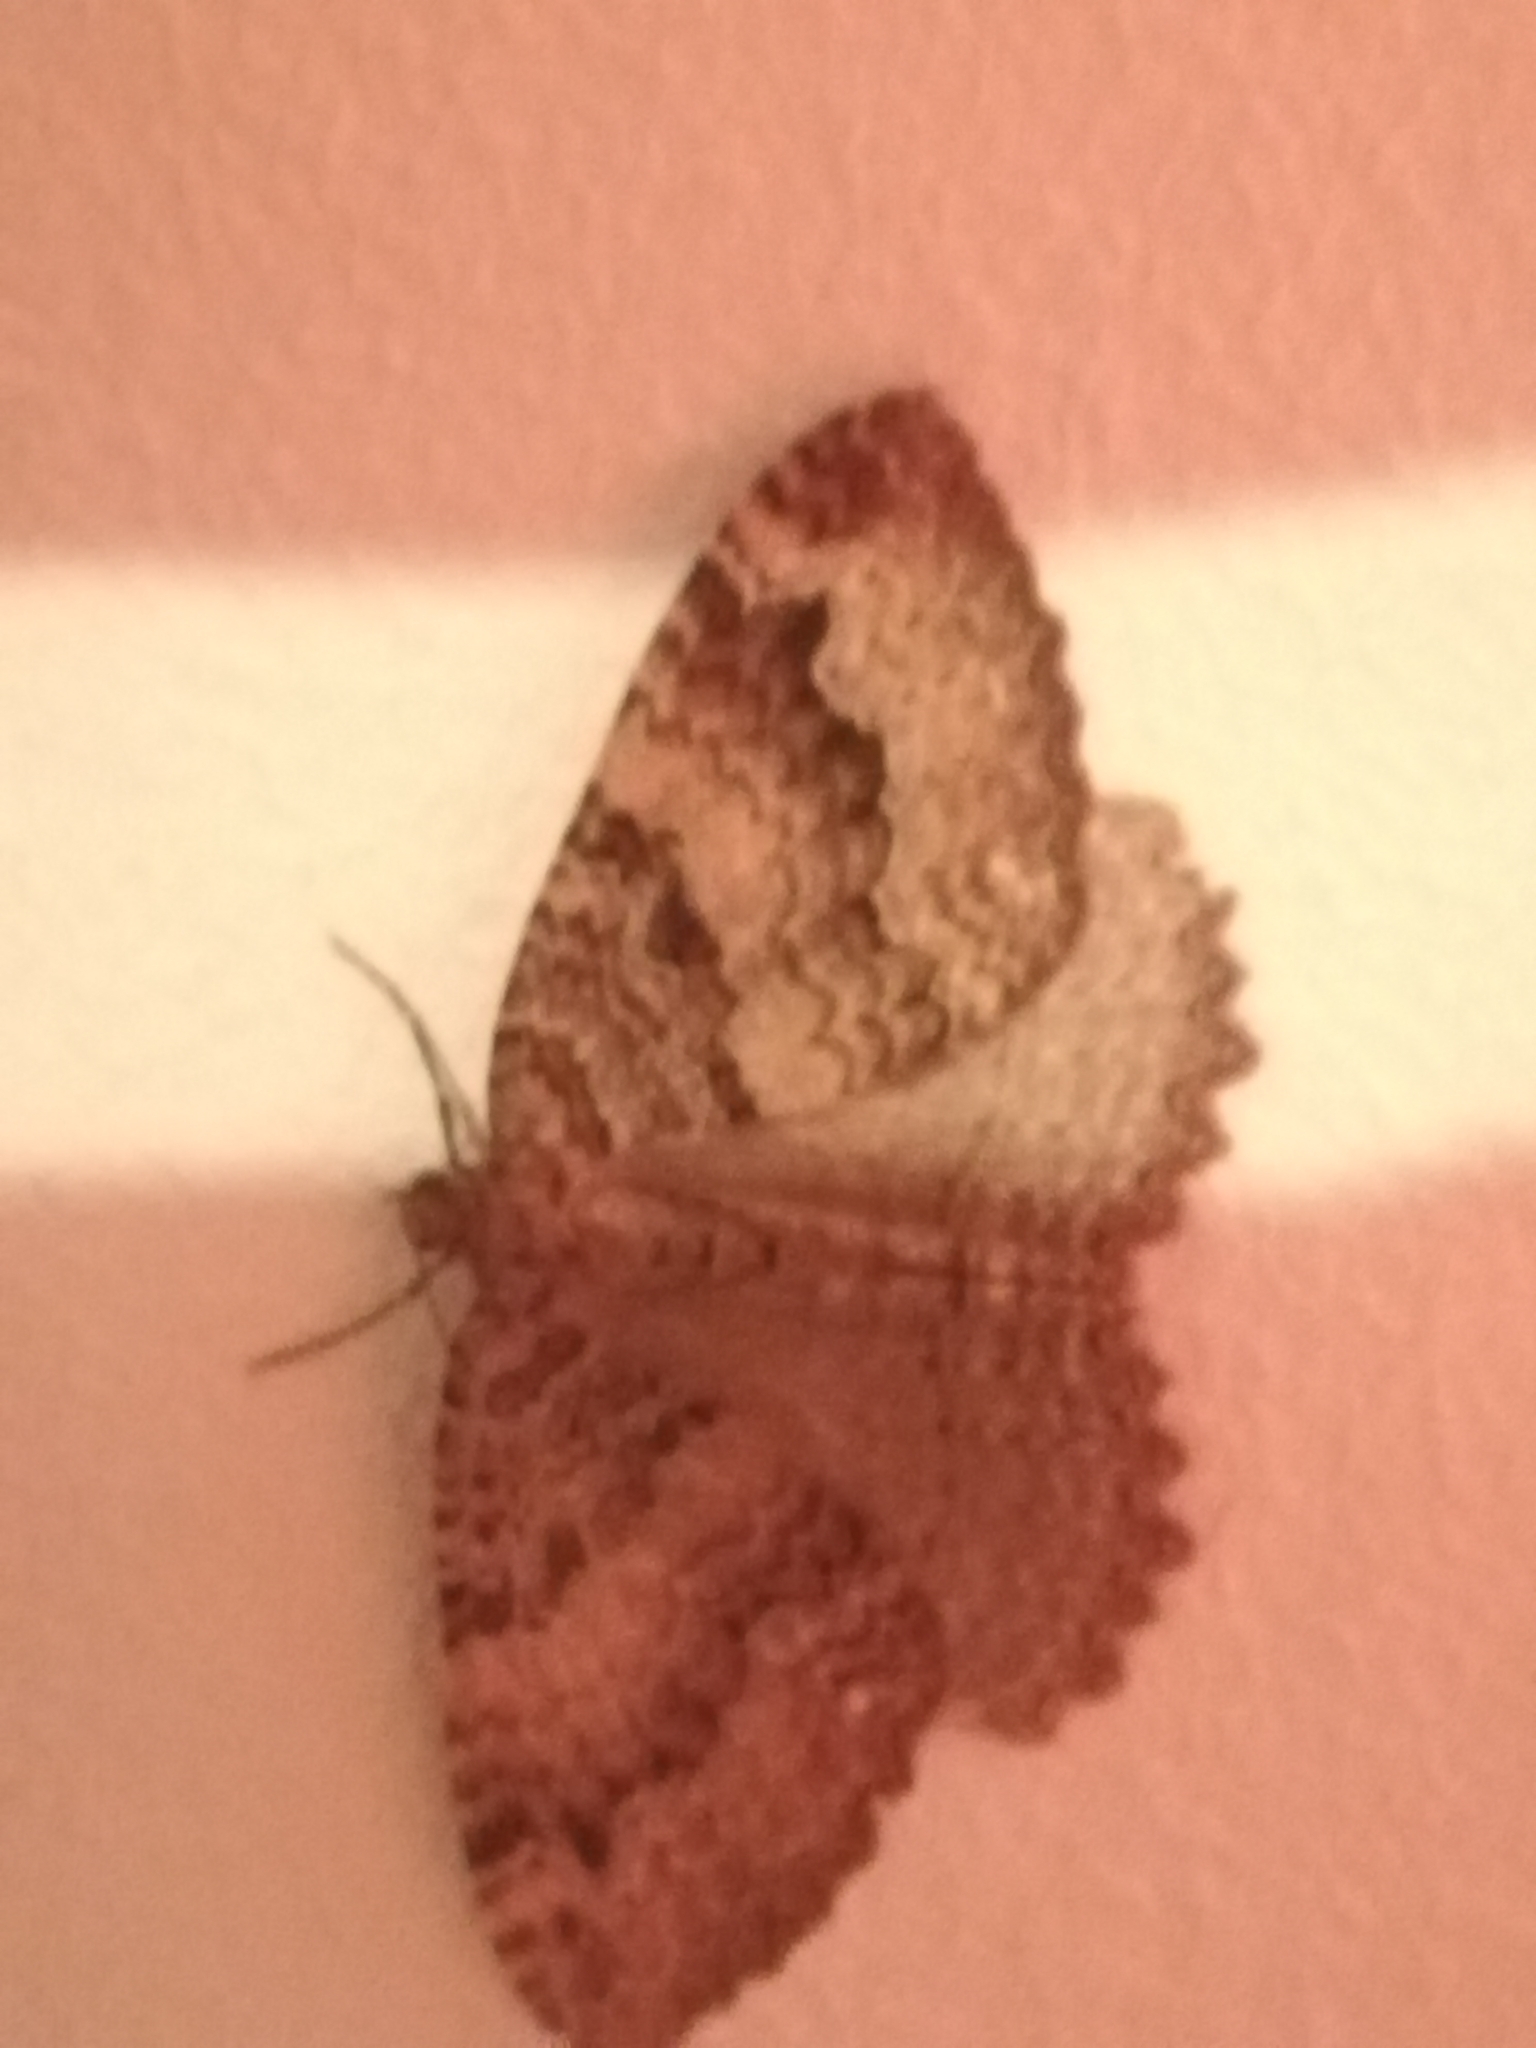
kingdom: Animalia
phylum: Arthropoda
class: Insecta
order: Lepidoptera
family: Geometridae
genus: Triphosa
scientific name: Triphosa dubitata
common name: Tissue
